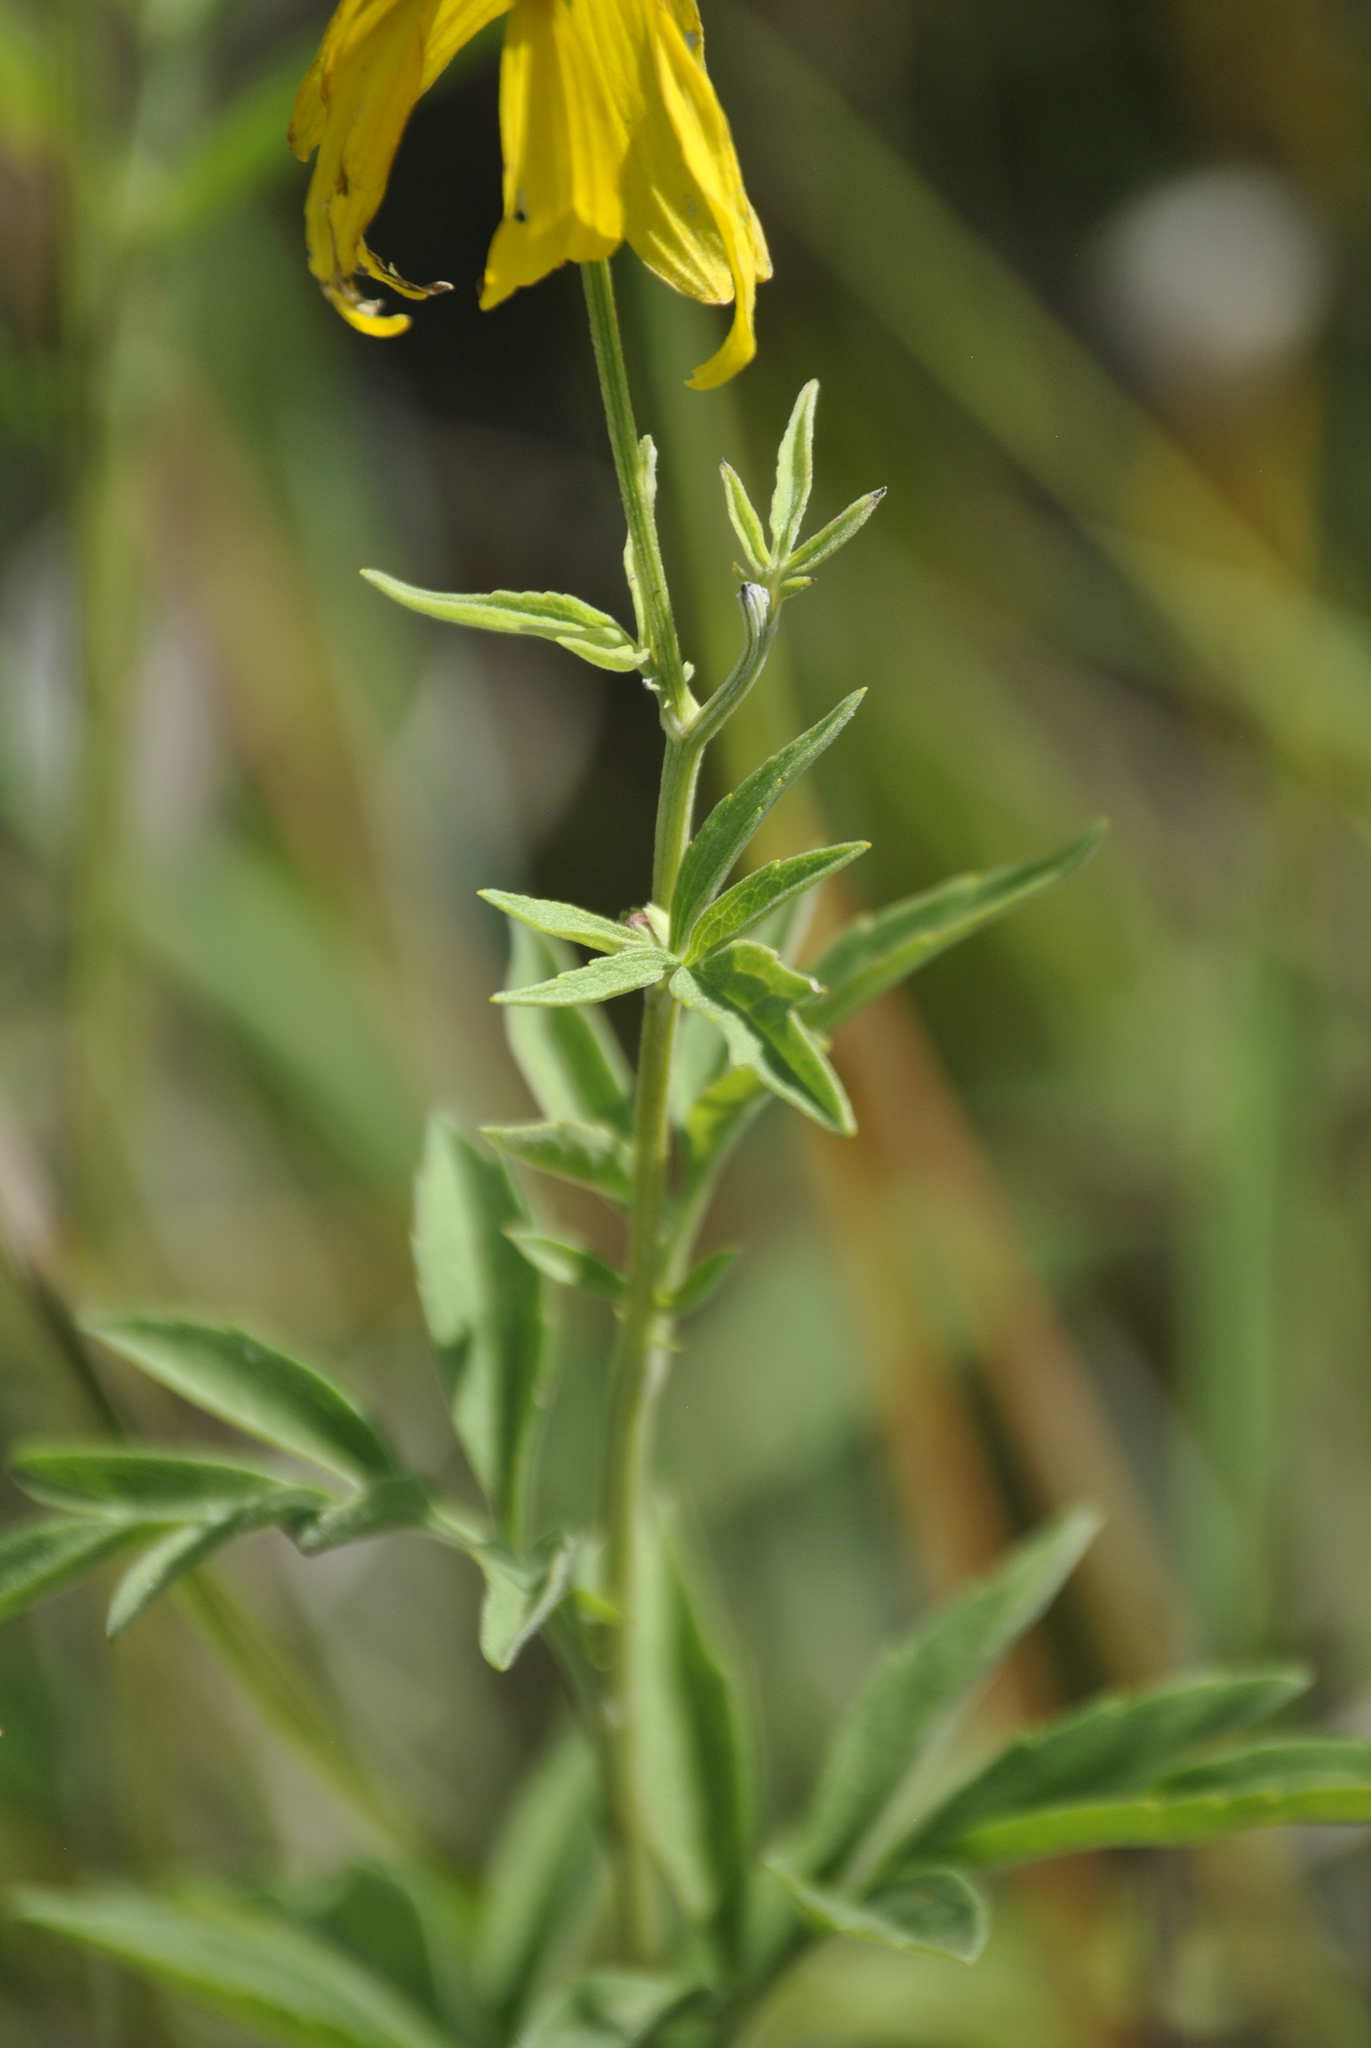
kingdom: Plantae
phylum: Tracheophyta
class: Magnoliopsida
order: Asterales
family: Asteraceae
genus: Ratibida
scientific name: Ratibida pinnata
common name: Drooping prairie-coneflower
